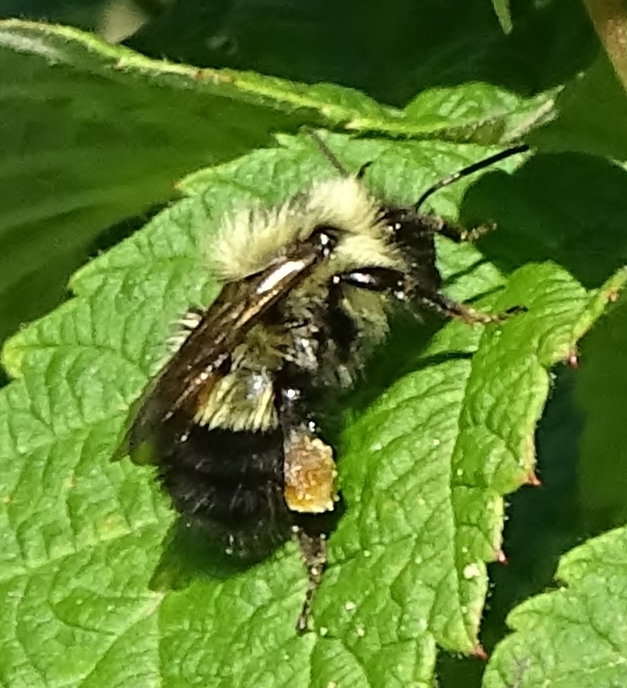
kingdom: Animalia
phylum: Arthropoda
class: Insecta
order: Hymenoptera
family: Apidae
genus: Pyrobombus
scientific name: Pyrobombus
